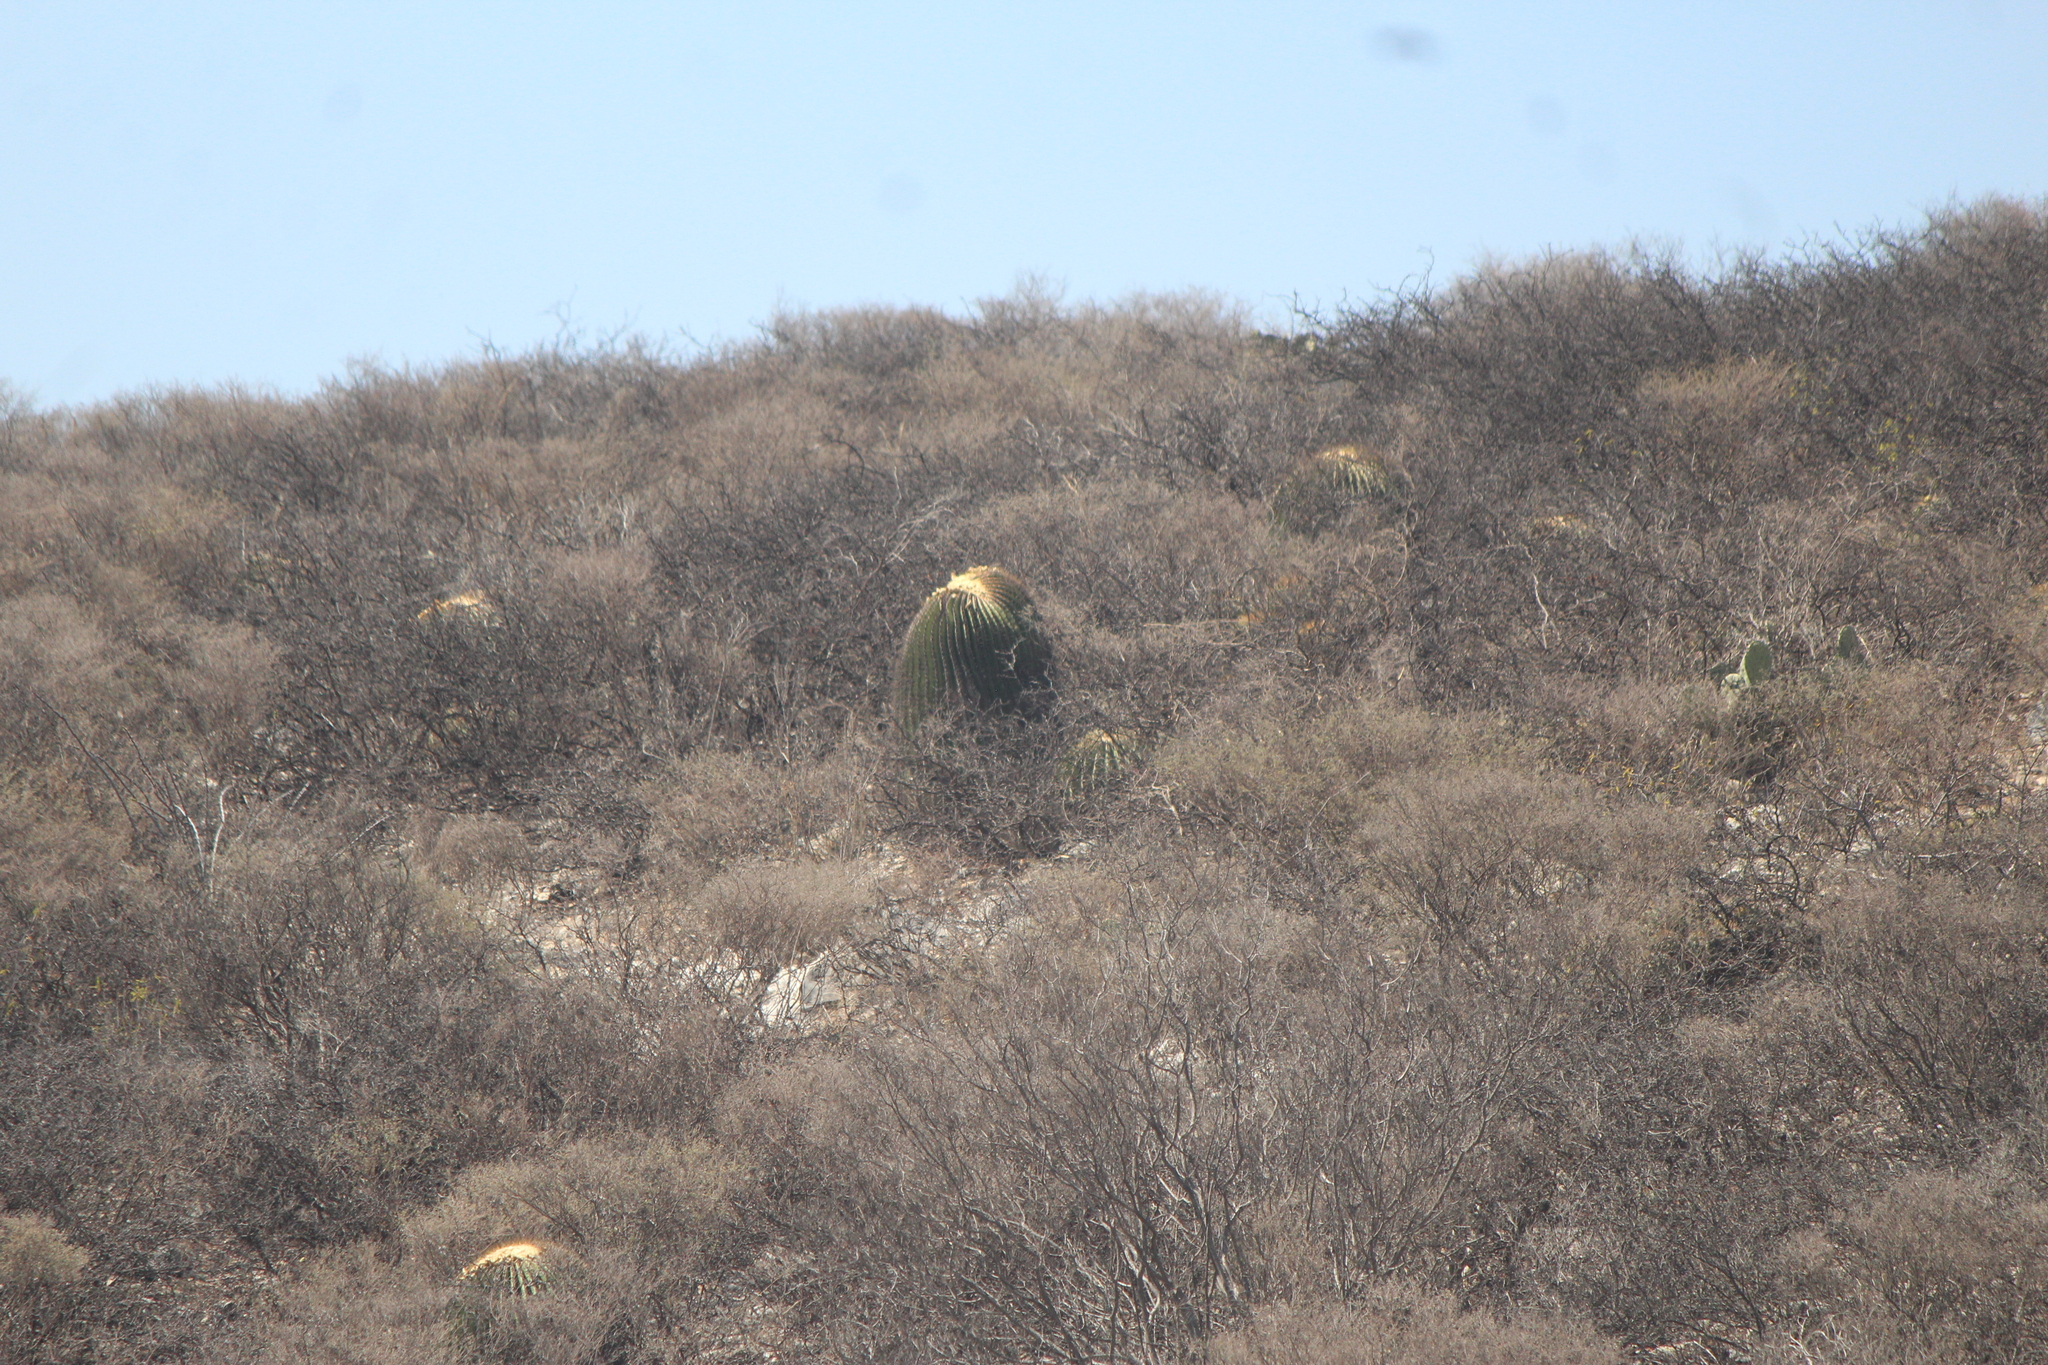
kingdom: Plantae
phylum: Tracheophyta
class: Magnoliopsida
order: Caryophyllales
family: Cactaceae
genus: Echinocactus
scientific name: Echinocactus platyacanthus
